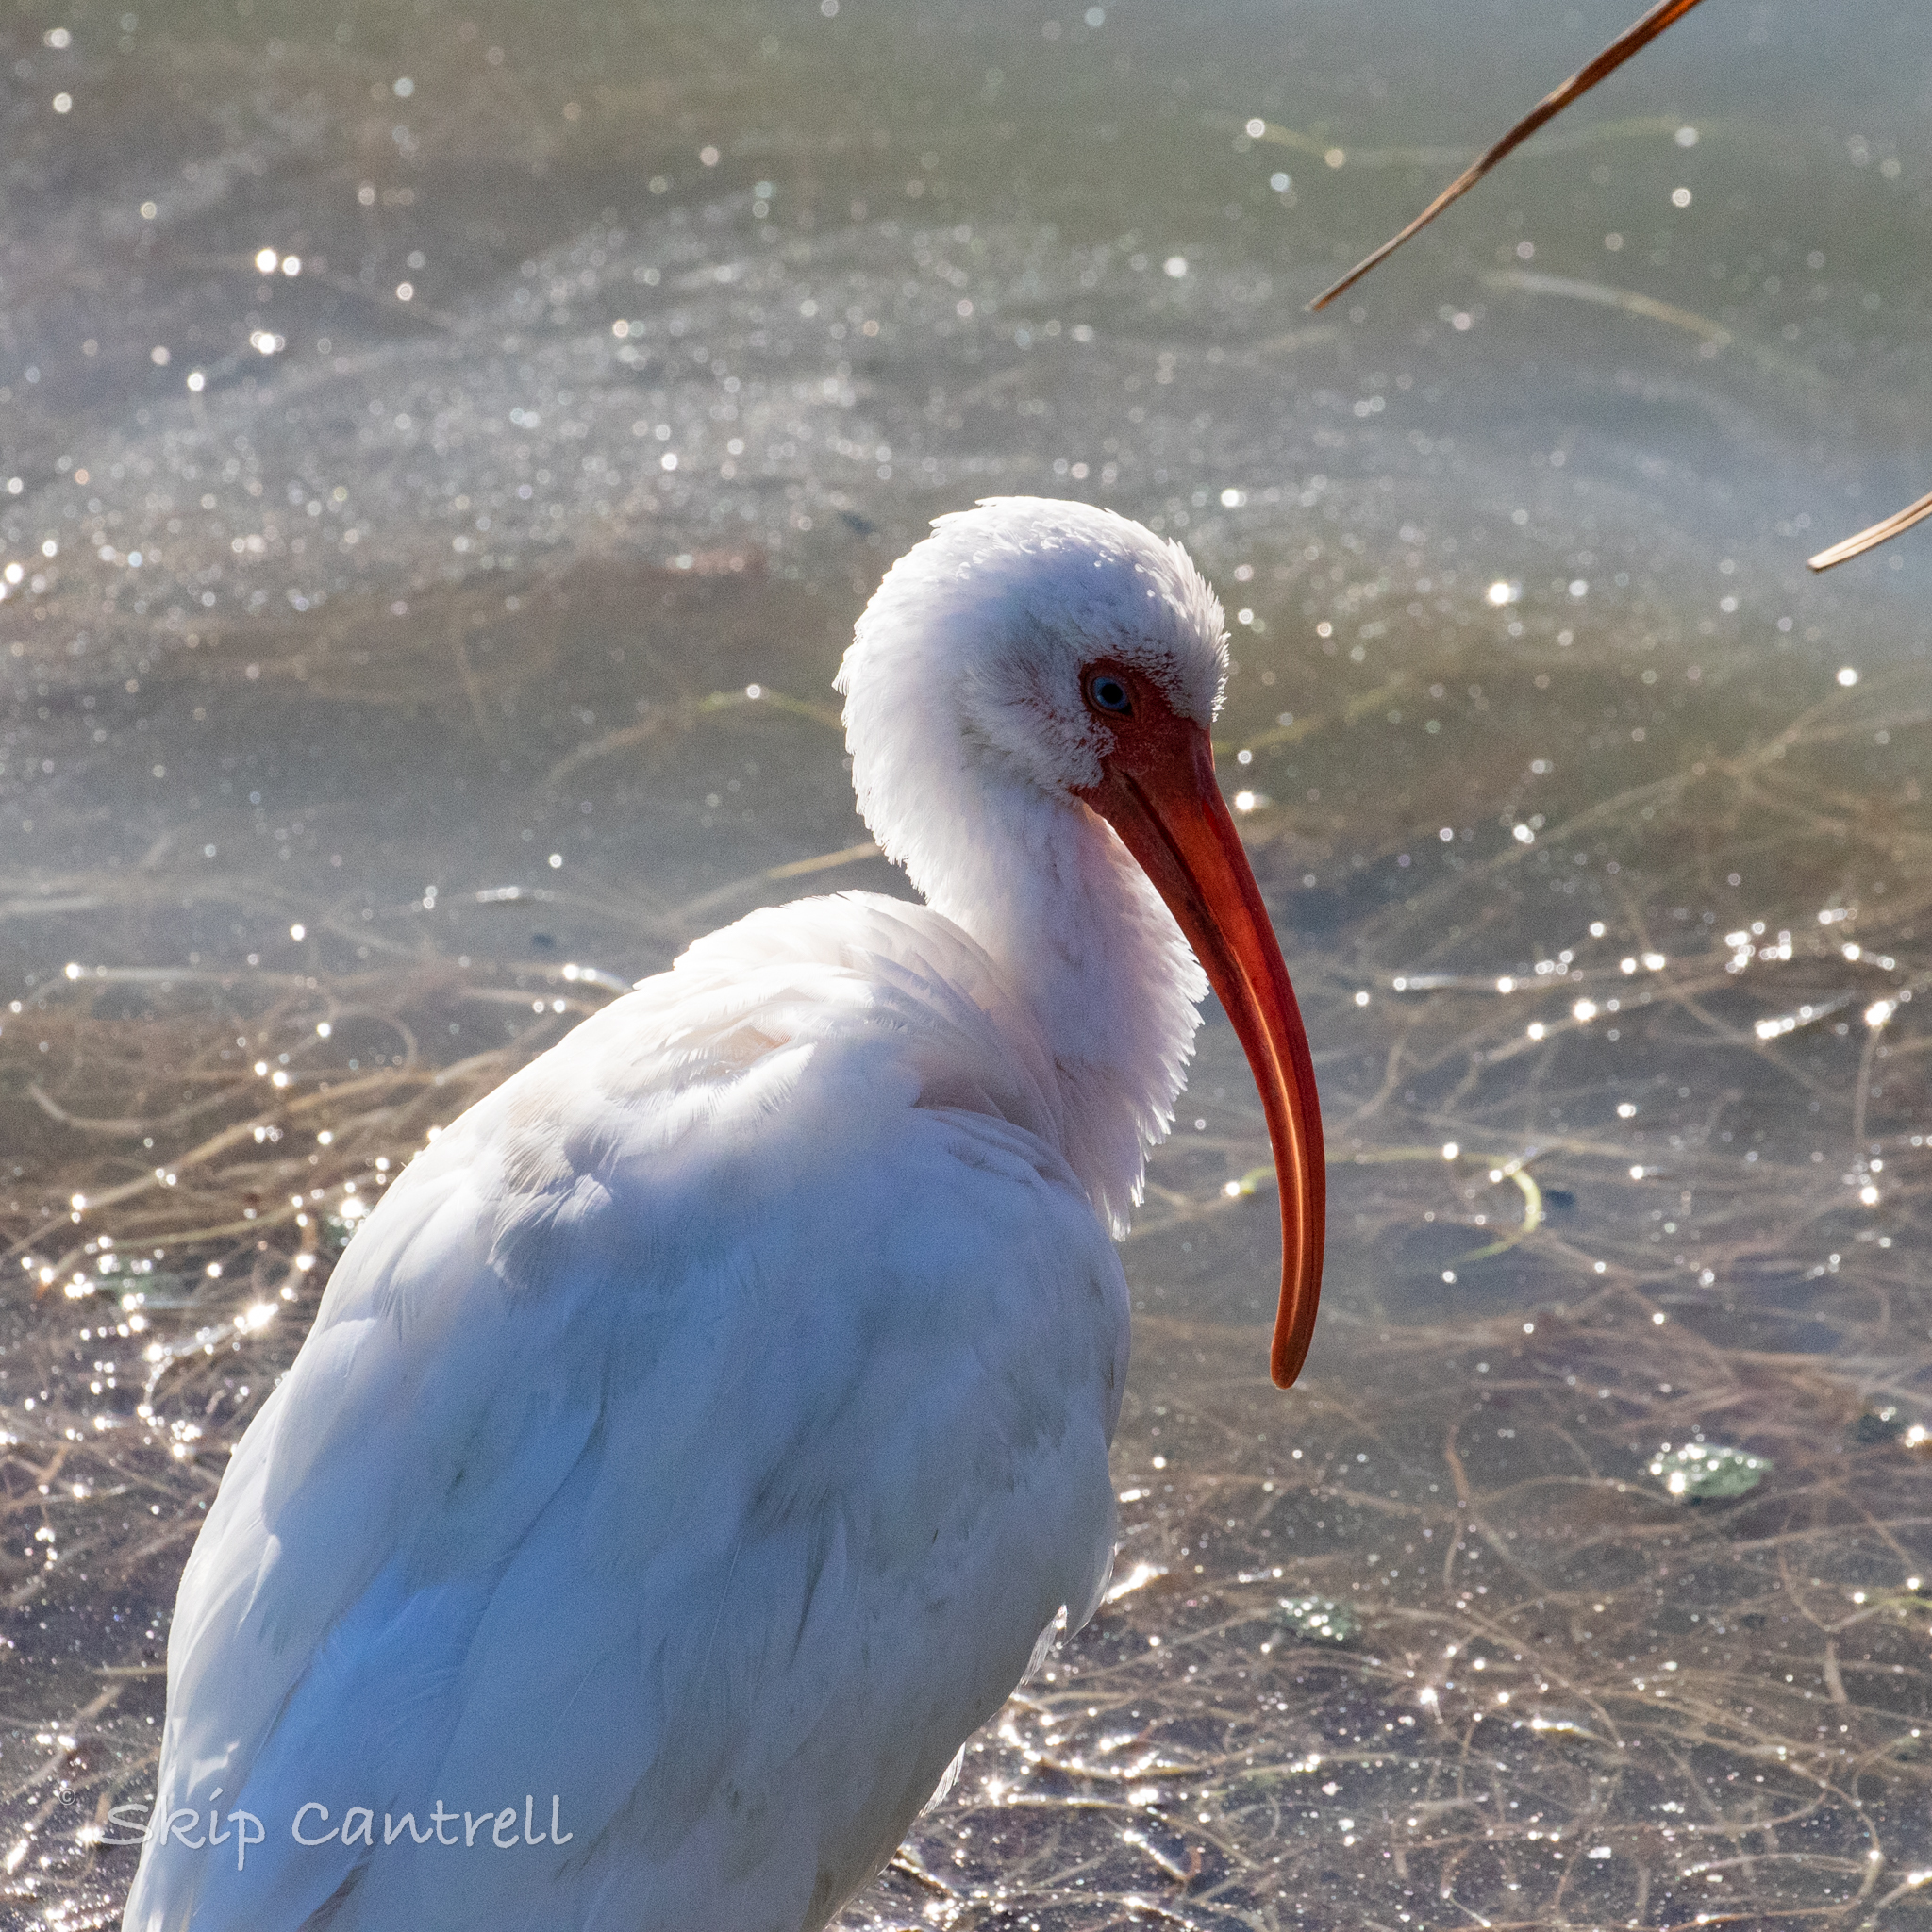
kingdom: Animalia
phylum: Chordata
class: Aves
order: Pelecaniformes
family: Threskiornithidae
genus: Eudocimus
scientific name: Eudocimus albus
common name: White ibis
